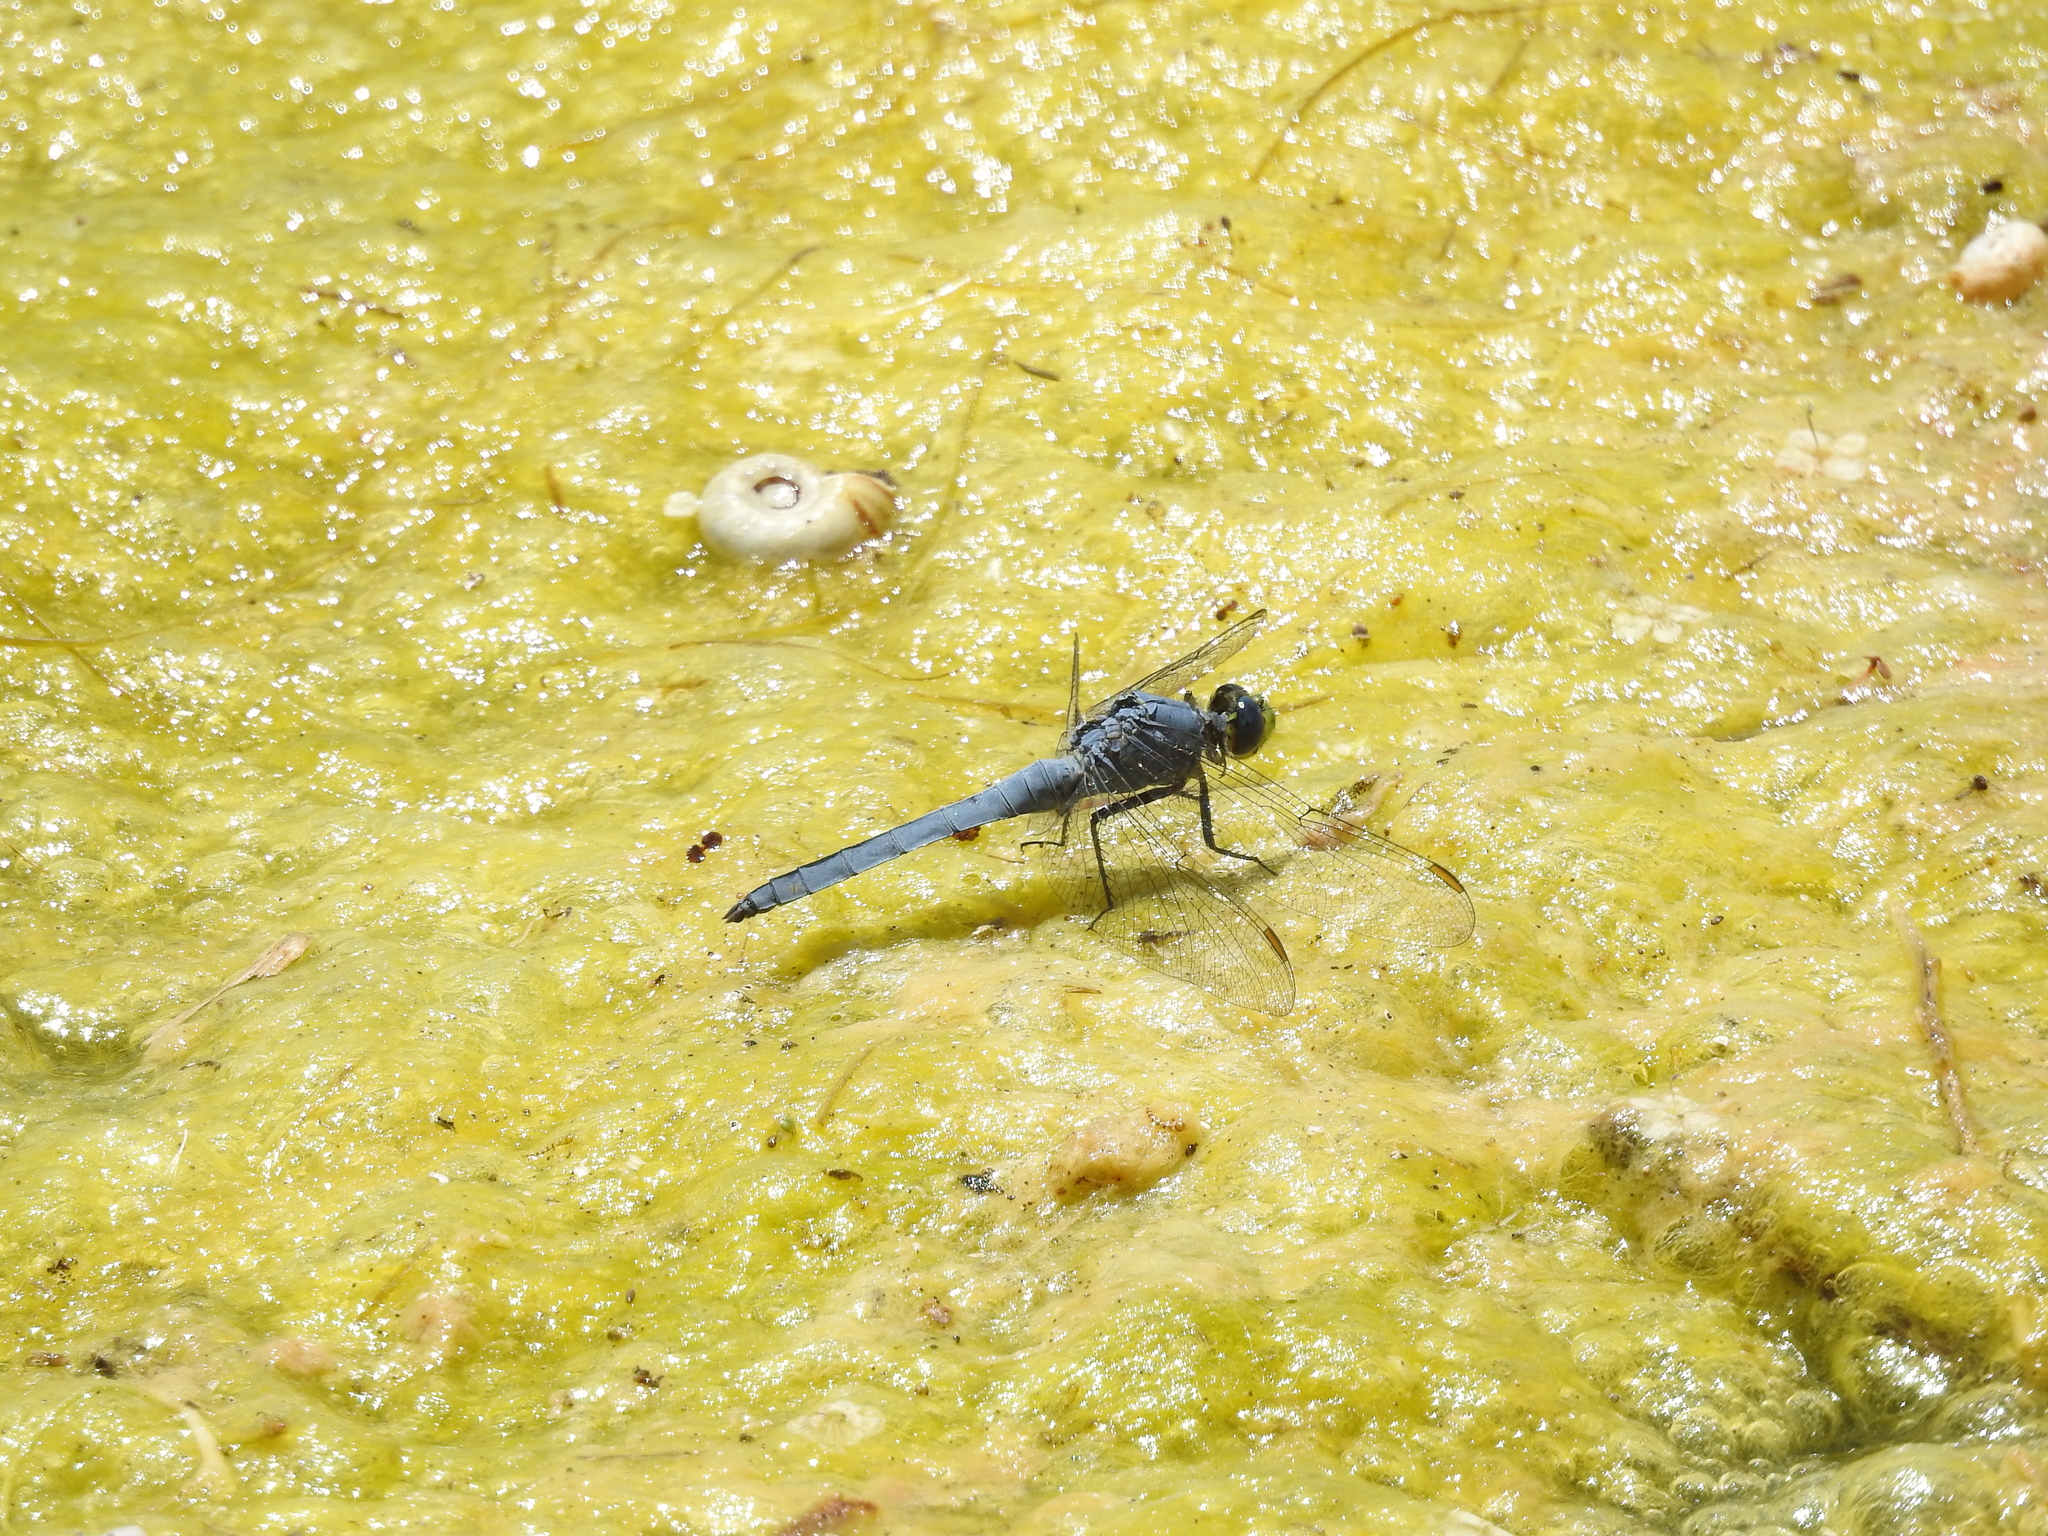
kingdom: Animalia
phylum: Arthropoda
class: Insecta
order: Odonata
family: Libellulidae
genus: Erythemis
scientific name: Erythemis collocata
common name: Western pondhawk
